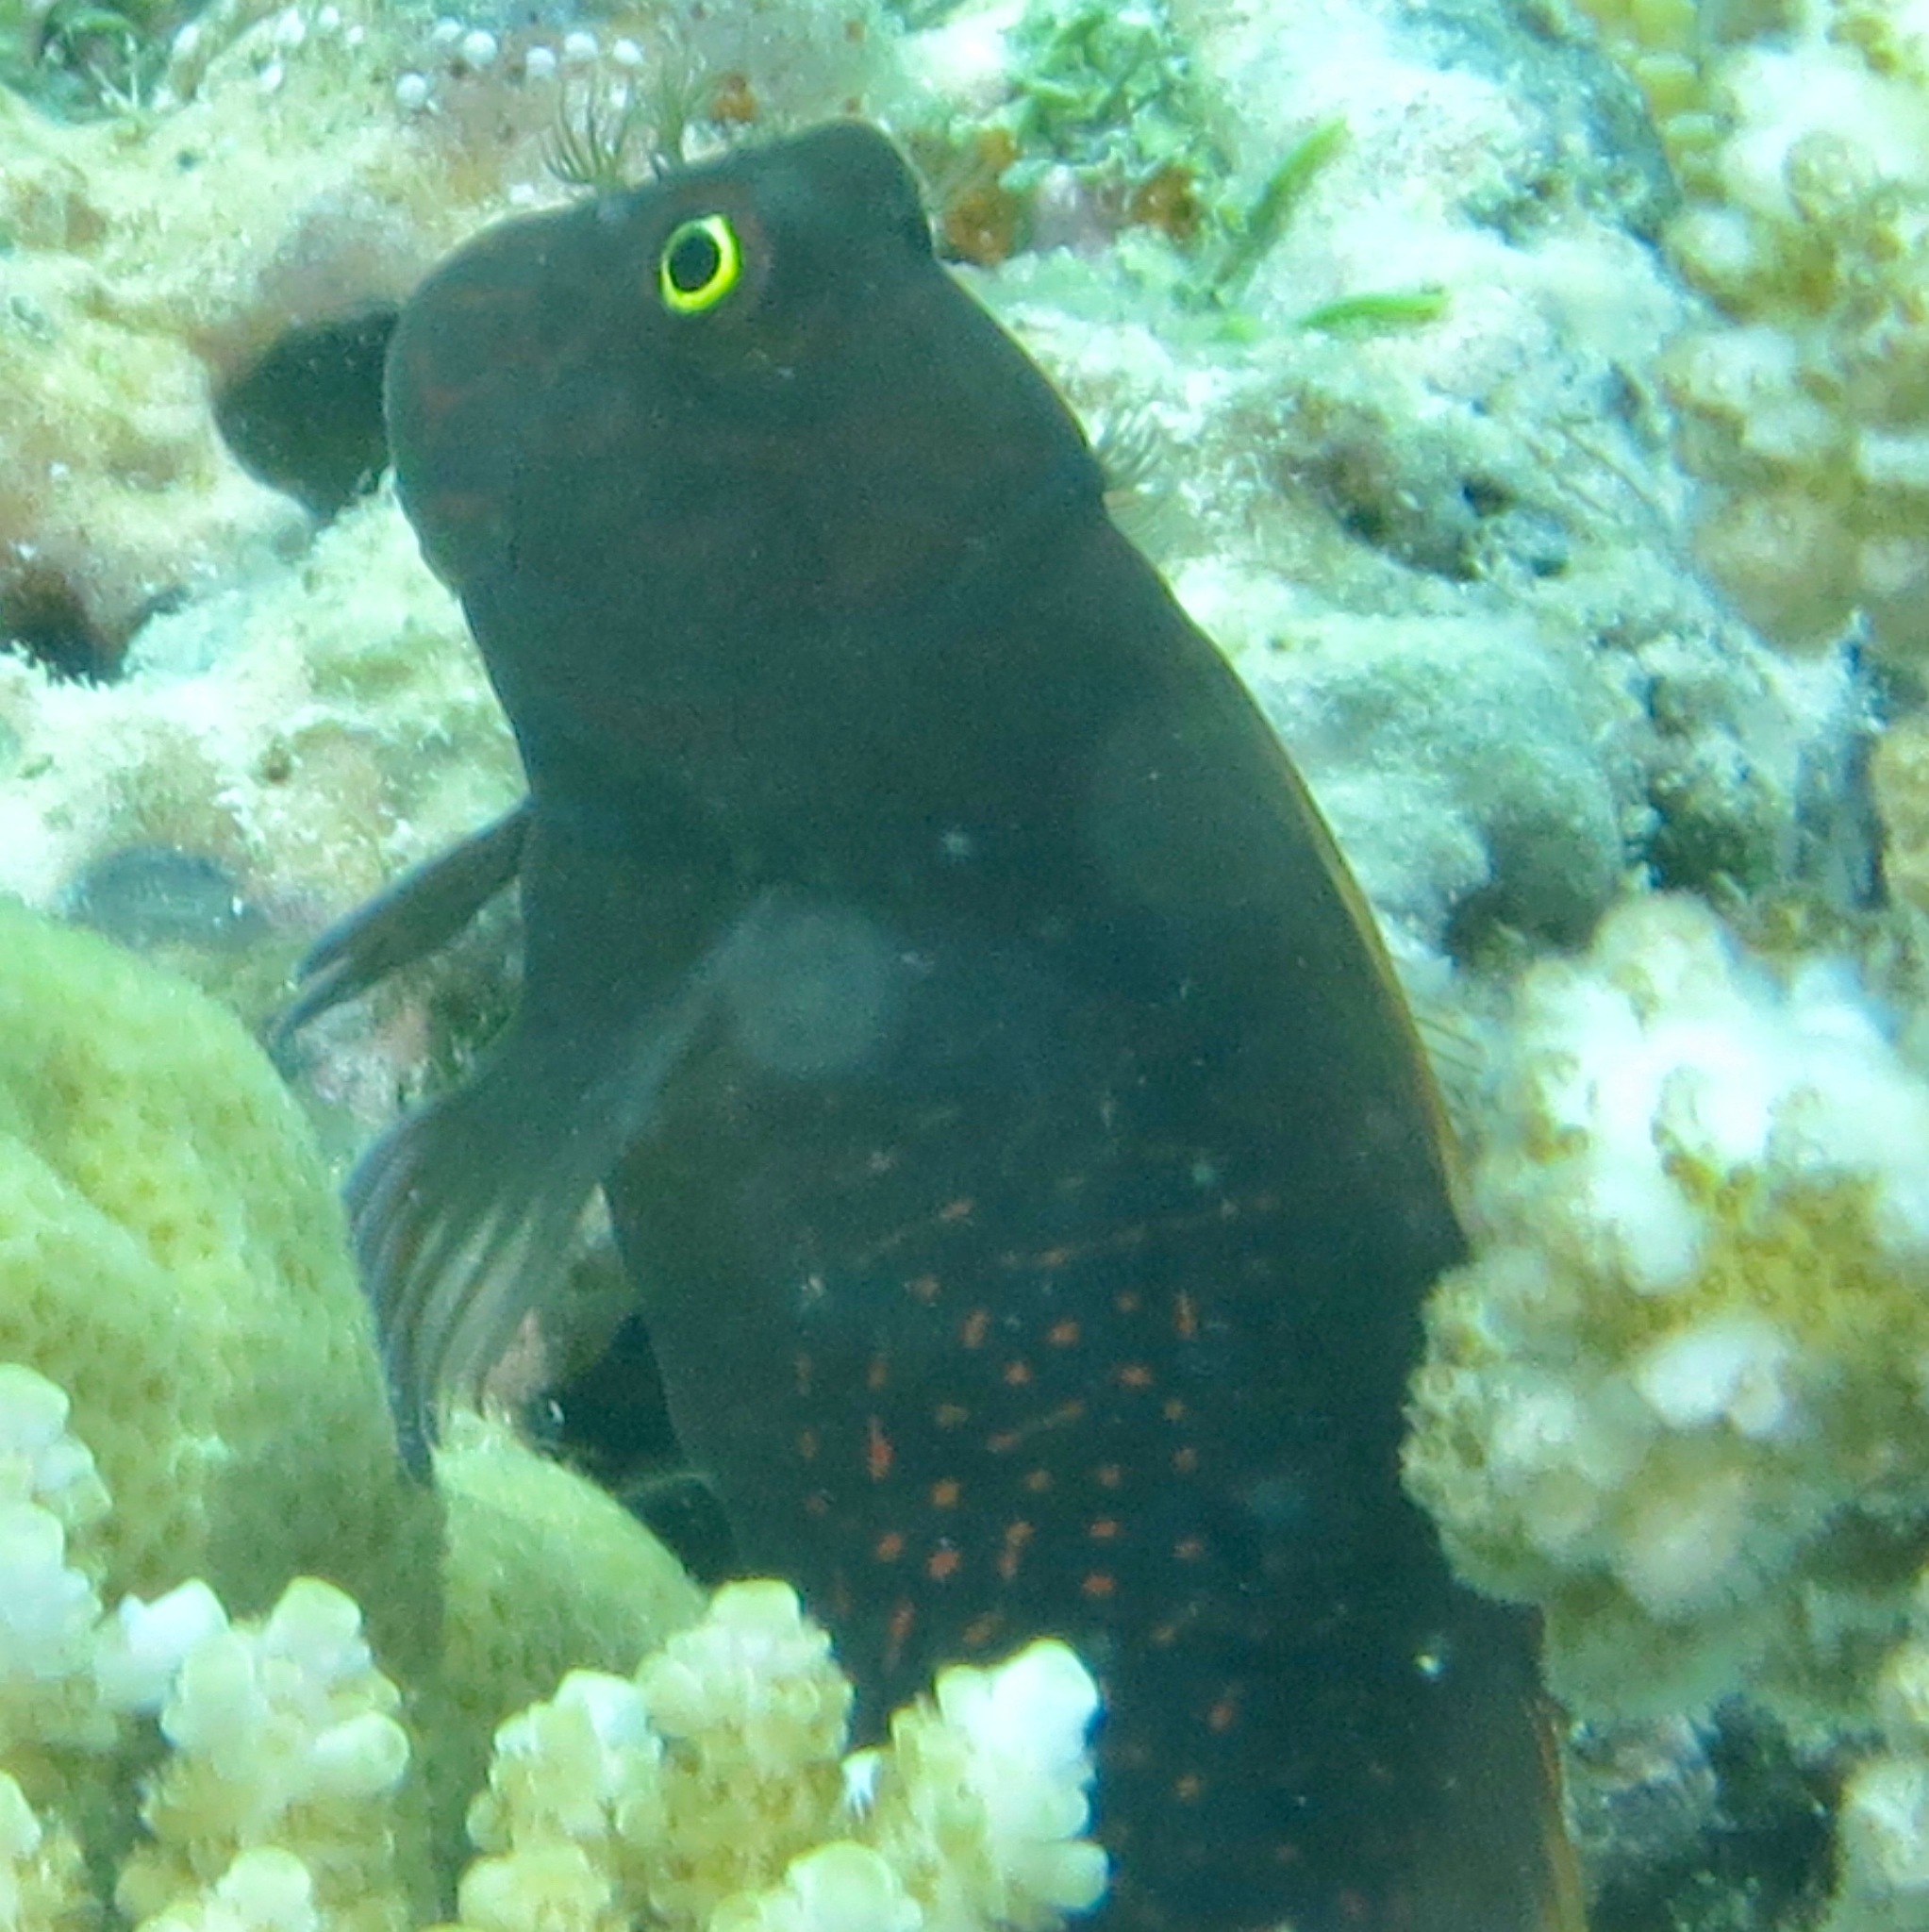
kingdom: Animalia
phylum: Chordata
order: Perciformes
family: Blenniidae
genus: Cirripectes
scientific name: Cirripectes stigmaticus
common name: Red-streaked blenny
